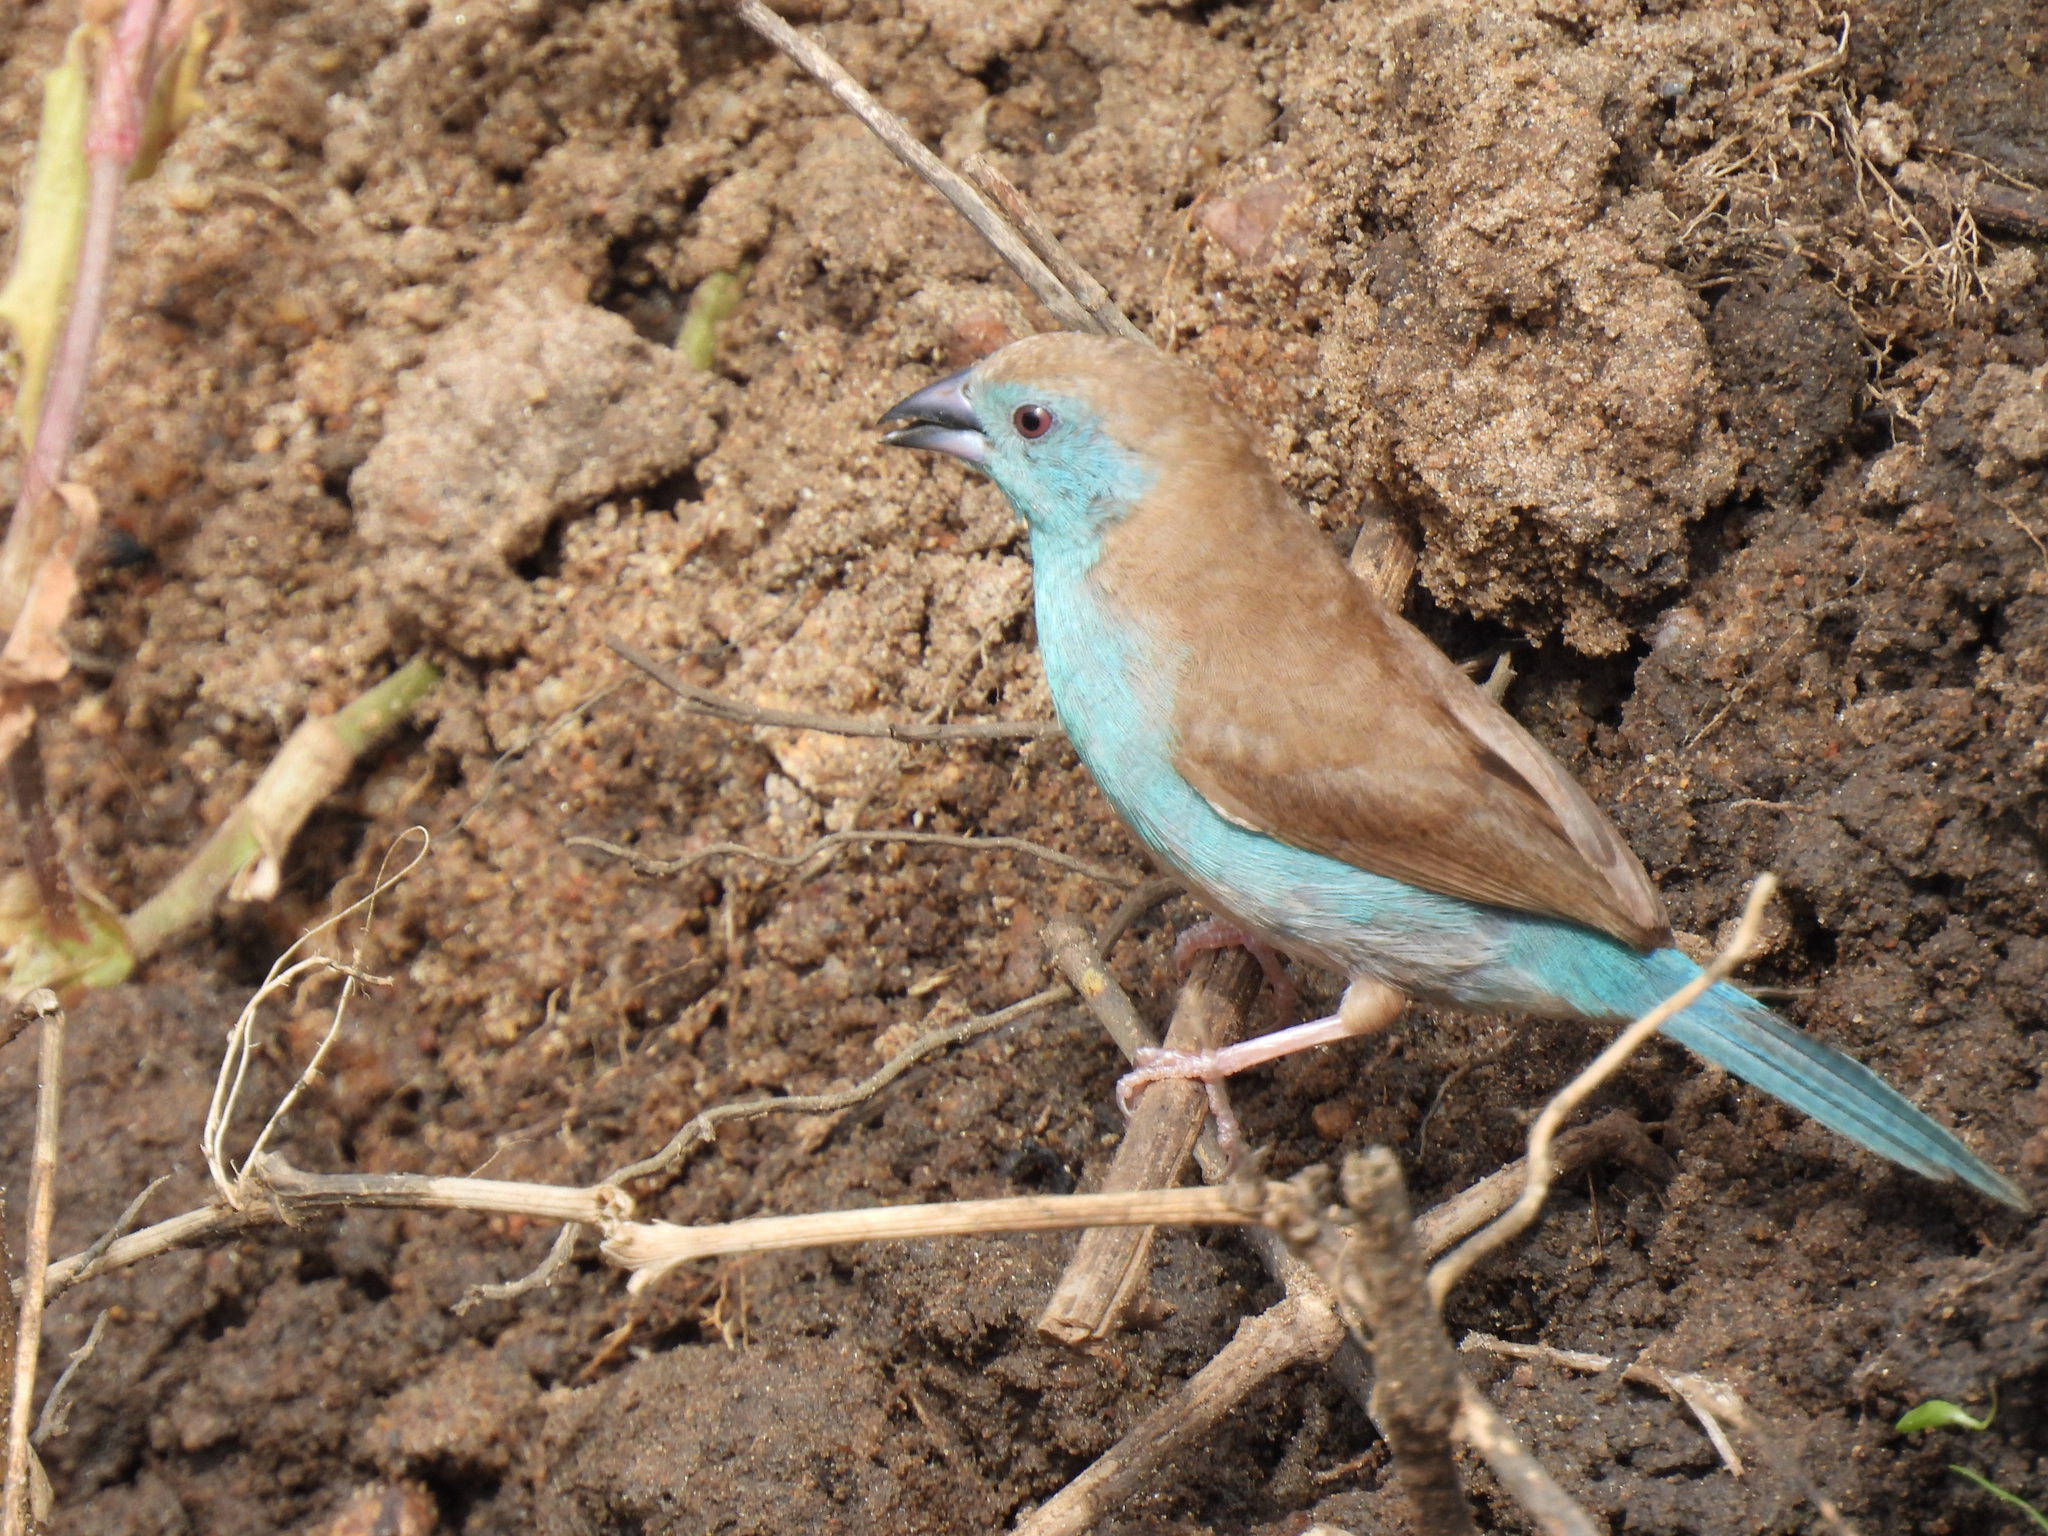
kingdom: Animalia
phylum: Chordata
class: Aves
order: Passeriformes
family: Estrildidae
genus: Uraeginthus
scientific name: Uraeginthus angolensis
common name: Blue waxbill
